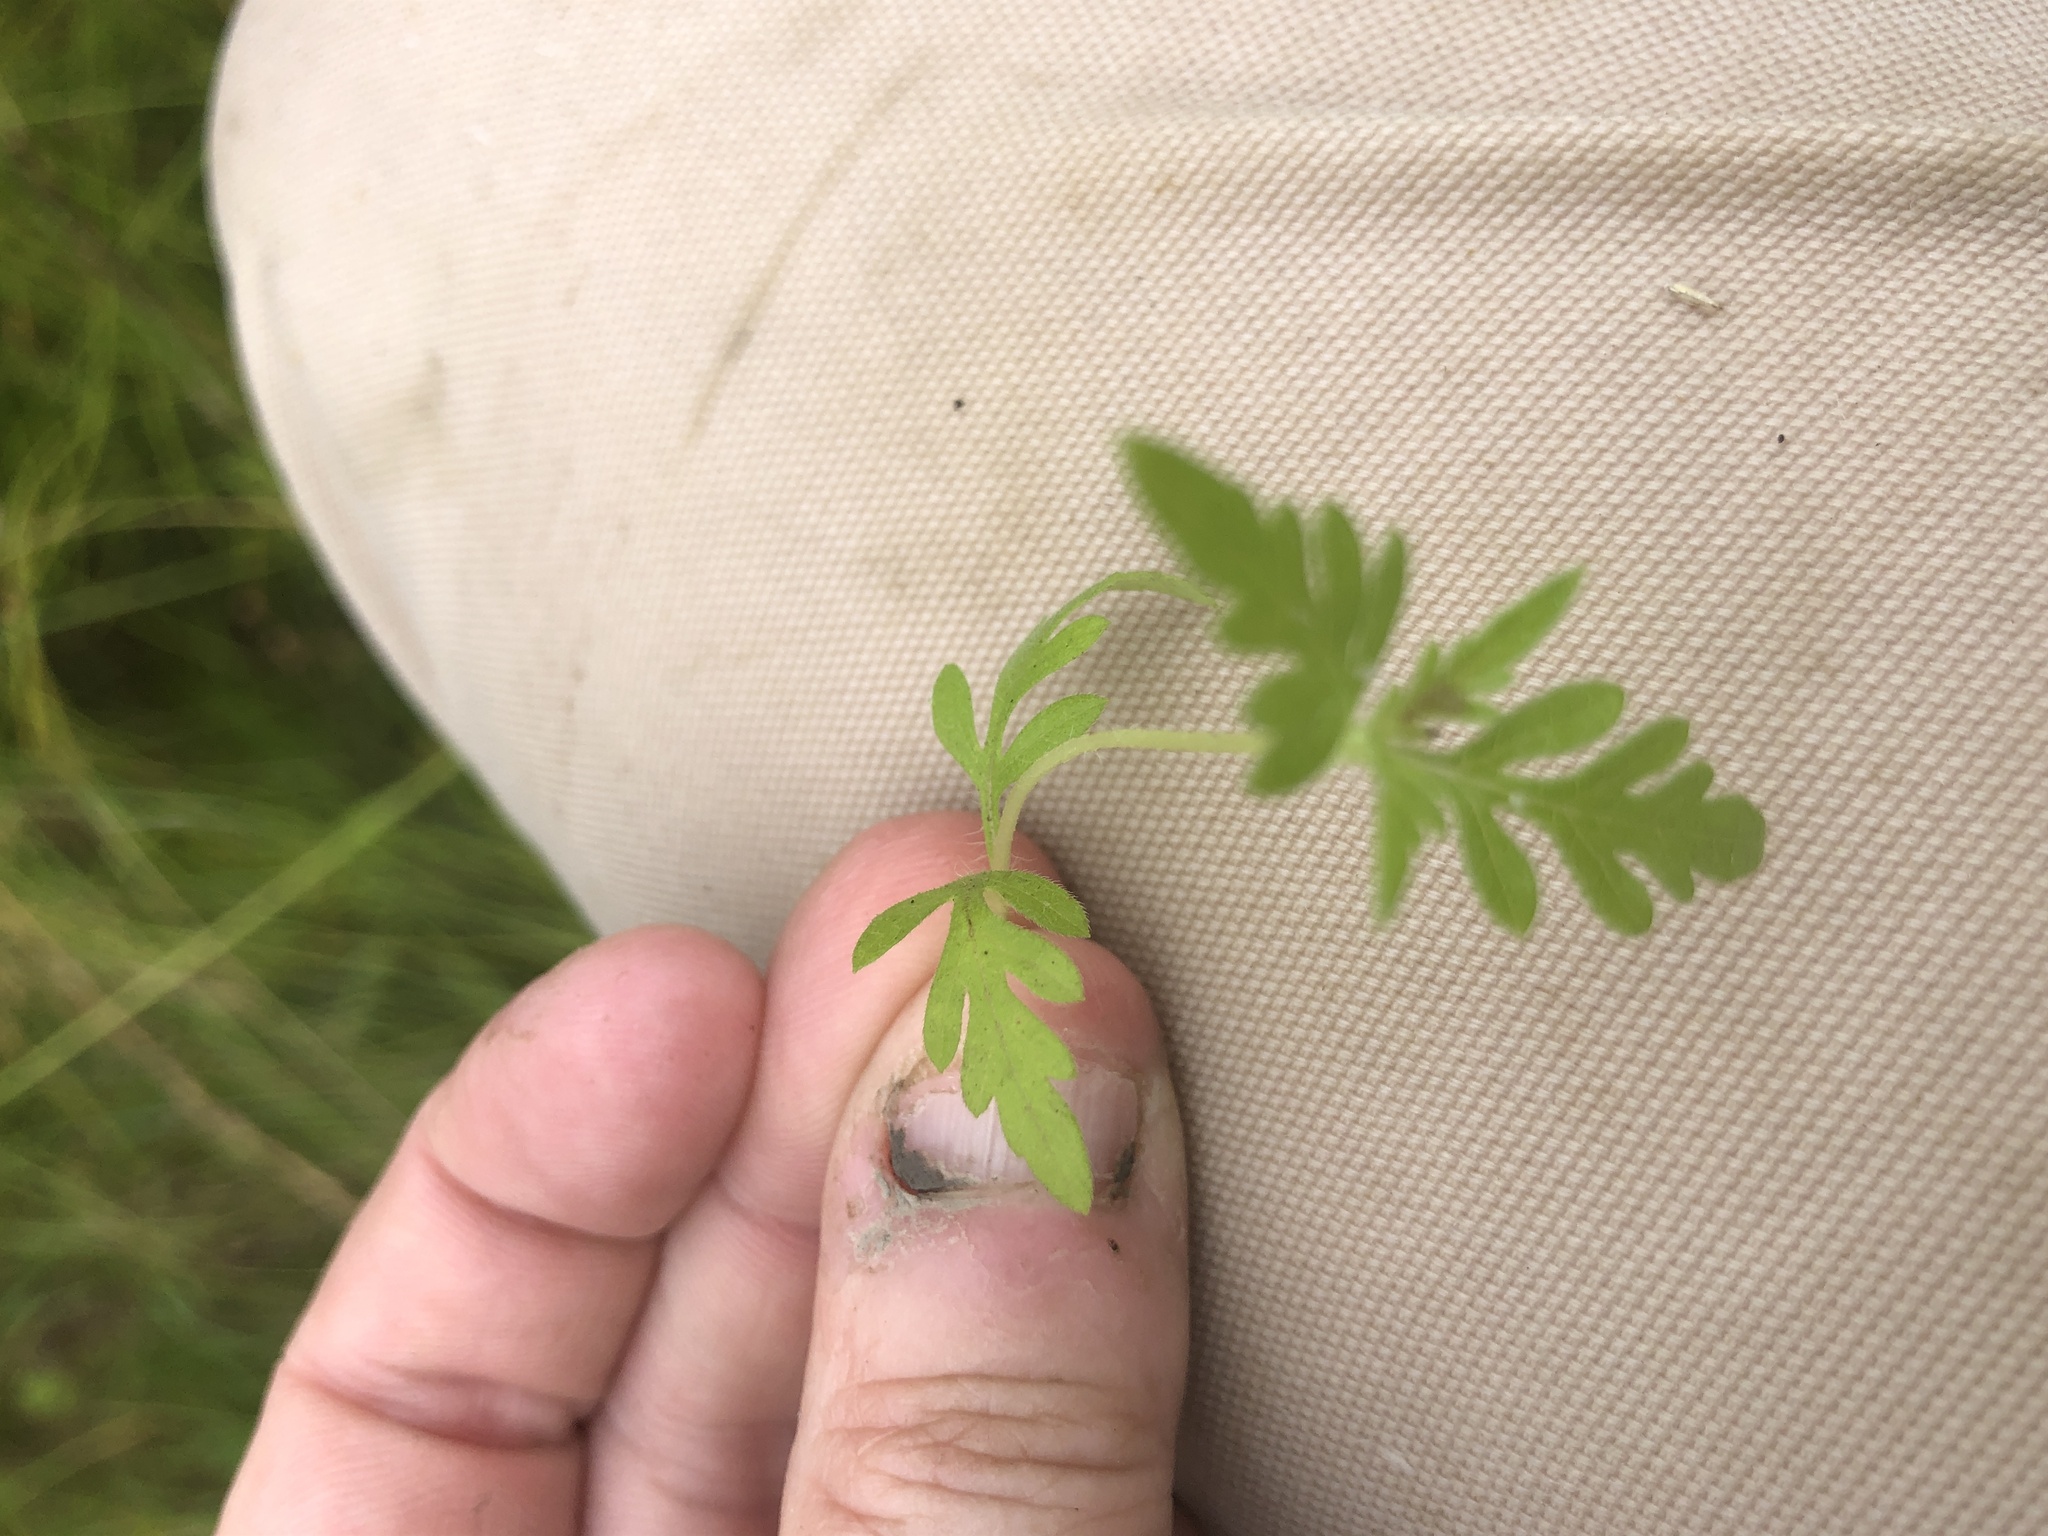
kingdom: Plantae
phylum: Tracheophyta
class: Magnoliopsida
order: Asterales
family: Asteraceae
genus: Ambrosia
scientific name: Ambrosia artemisiifolia
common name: Annual ragweed
